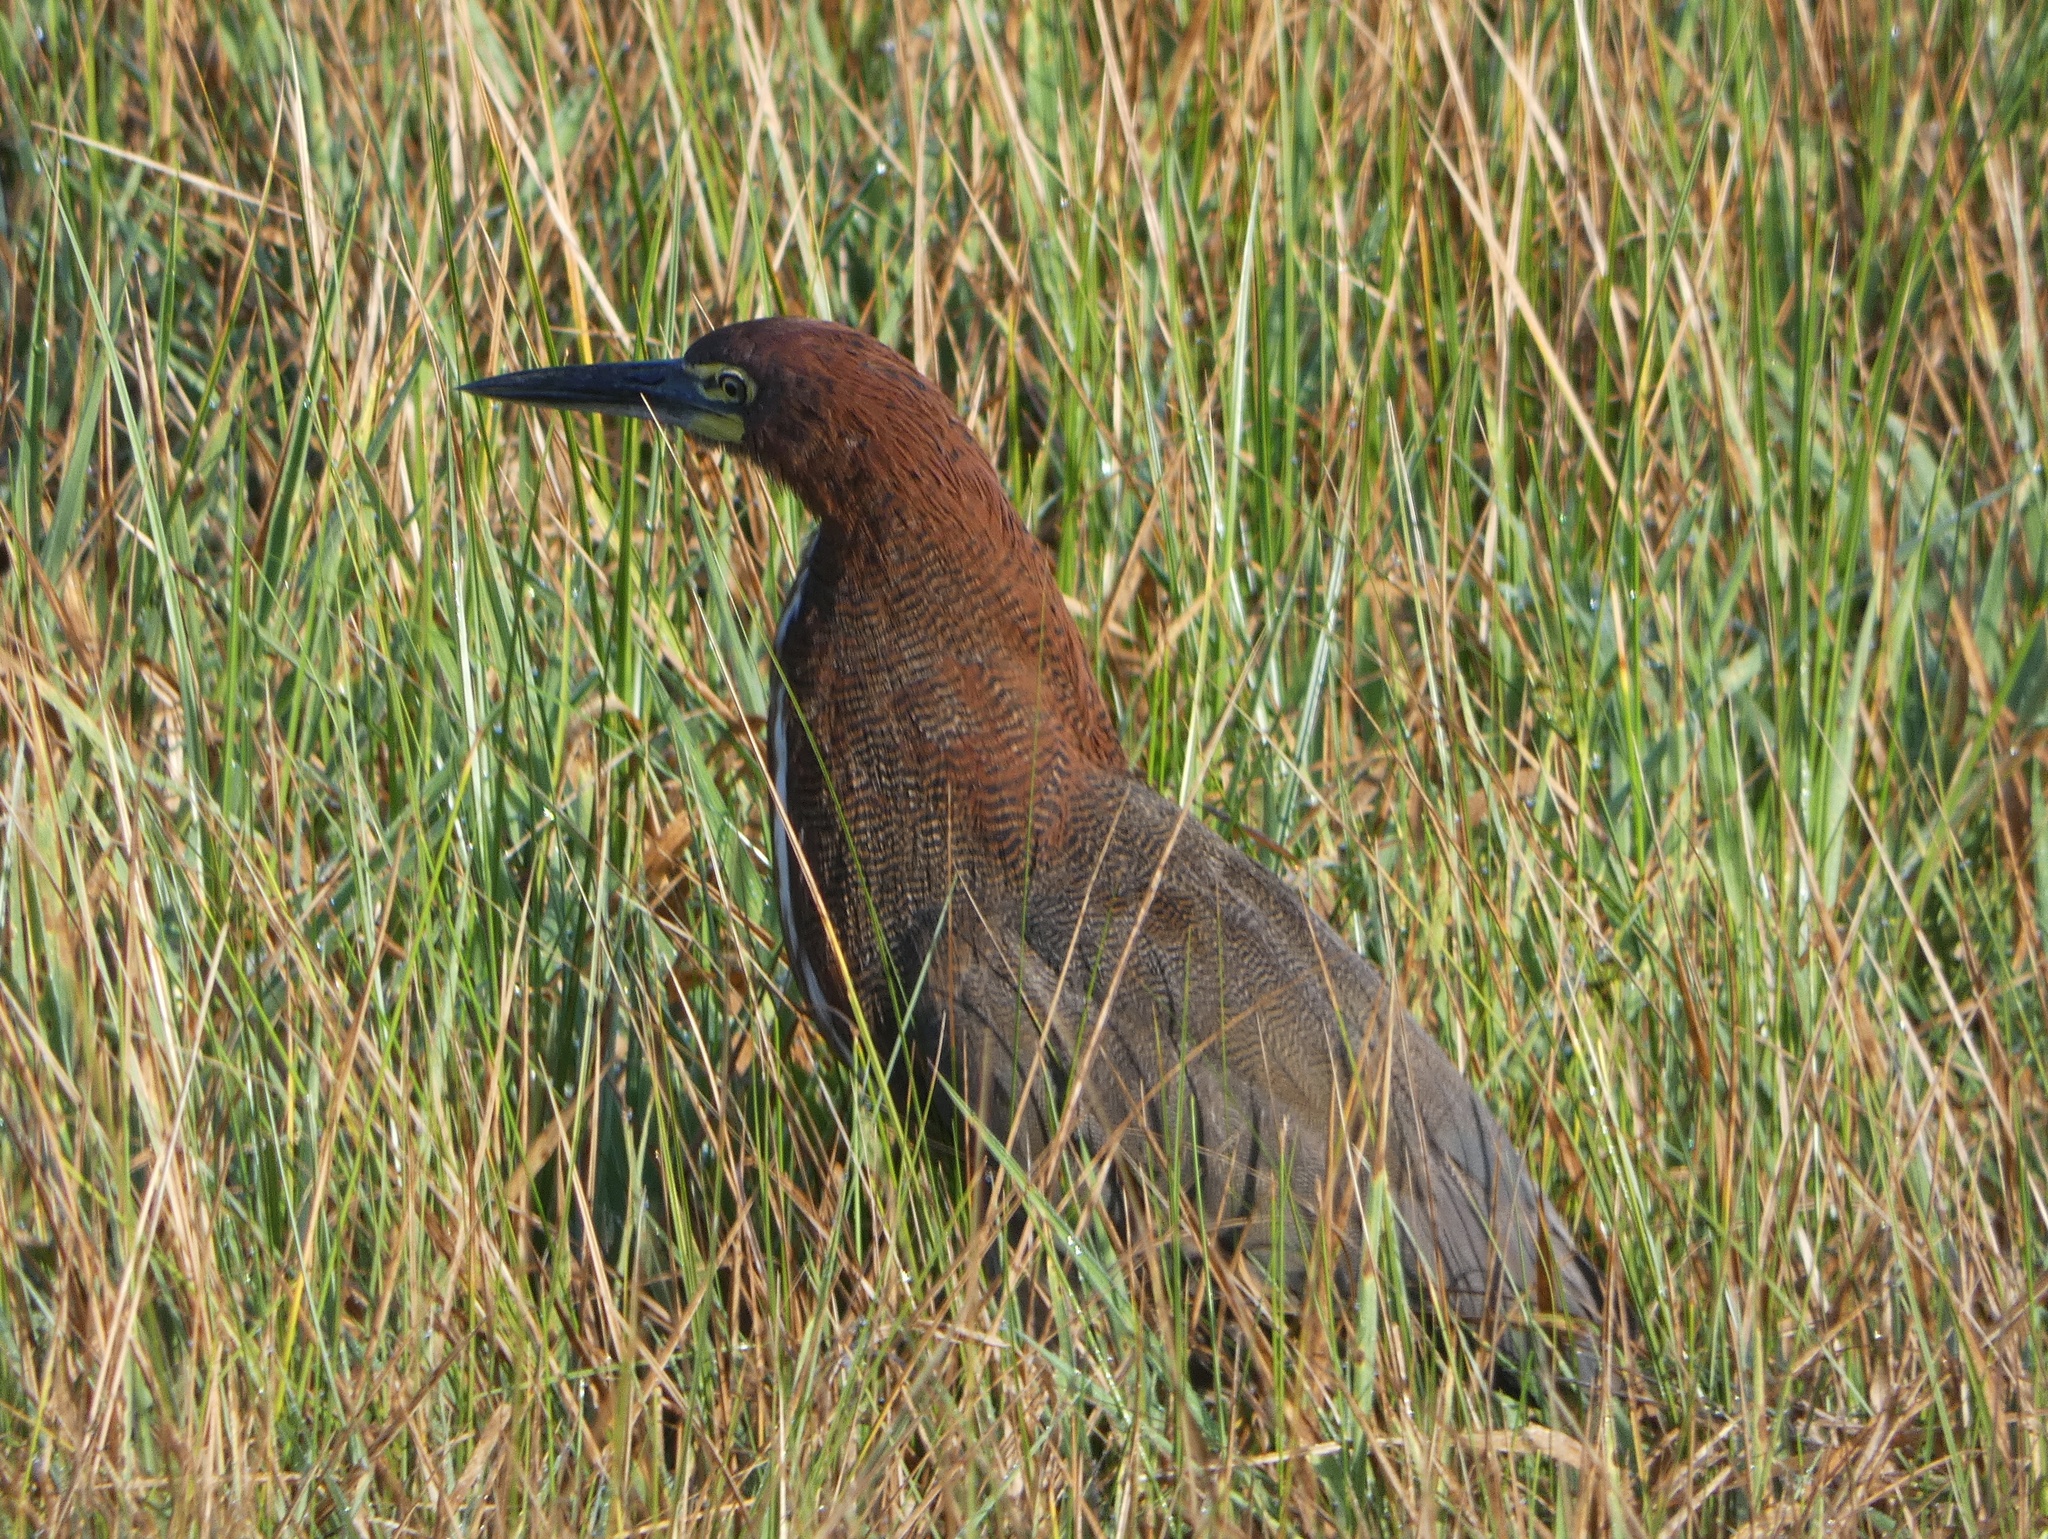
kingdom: Animalia
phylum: Chordata
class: Aves
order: Pelecaniformes
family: Ardeidae
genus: Tigrisoma
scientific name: Tigrisoma lineatum
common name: Rufescent tiger-heron
